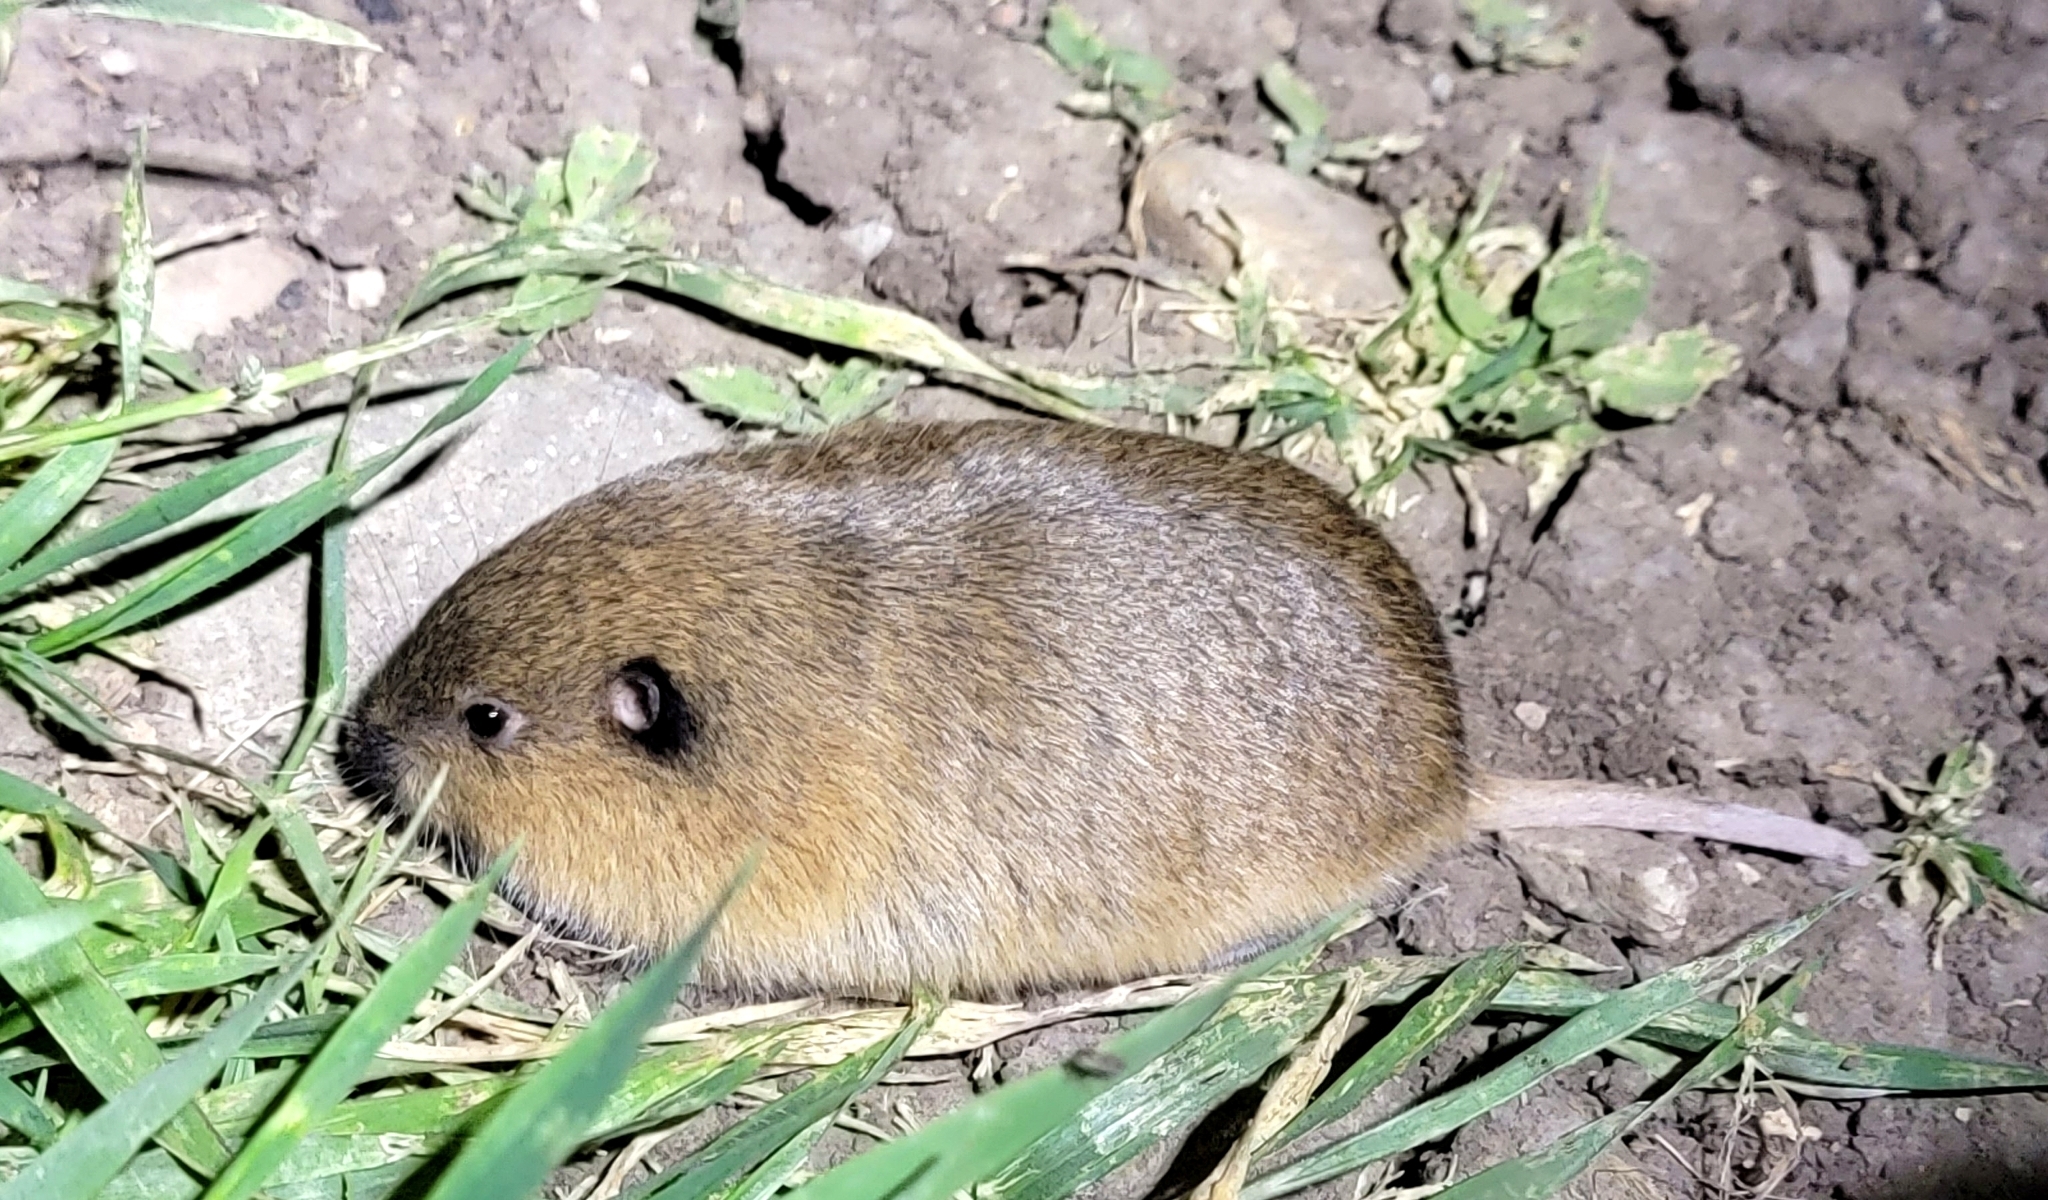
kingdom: Animalia
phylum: Chordata
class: Mammalia
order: Rodentia
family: Geomyidae
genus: Thomomys
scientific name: Thomomys bottae
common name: Botta's pocket gopher
